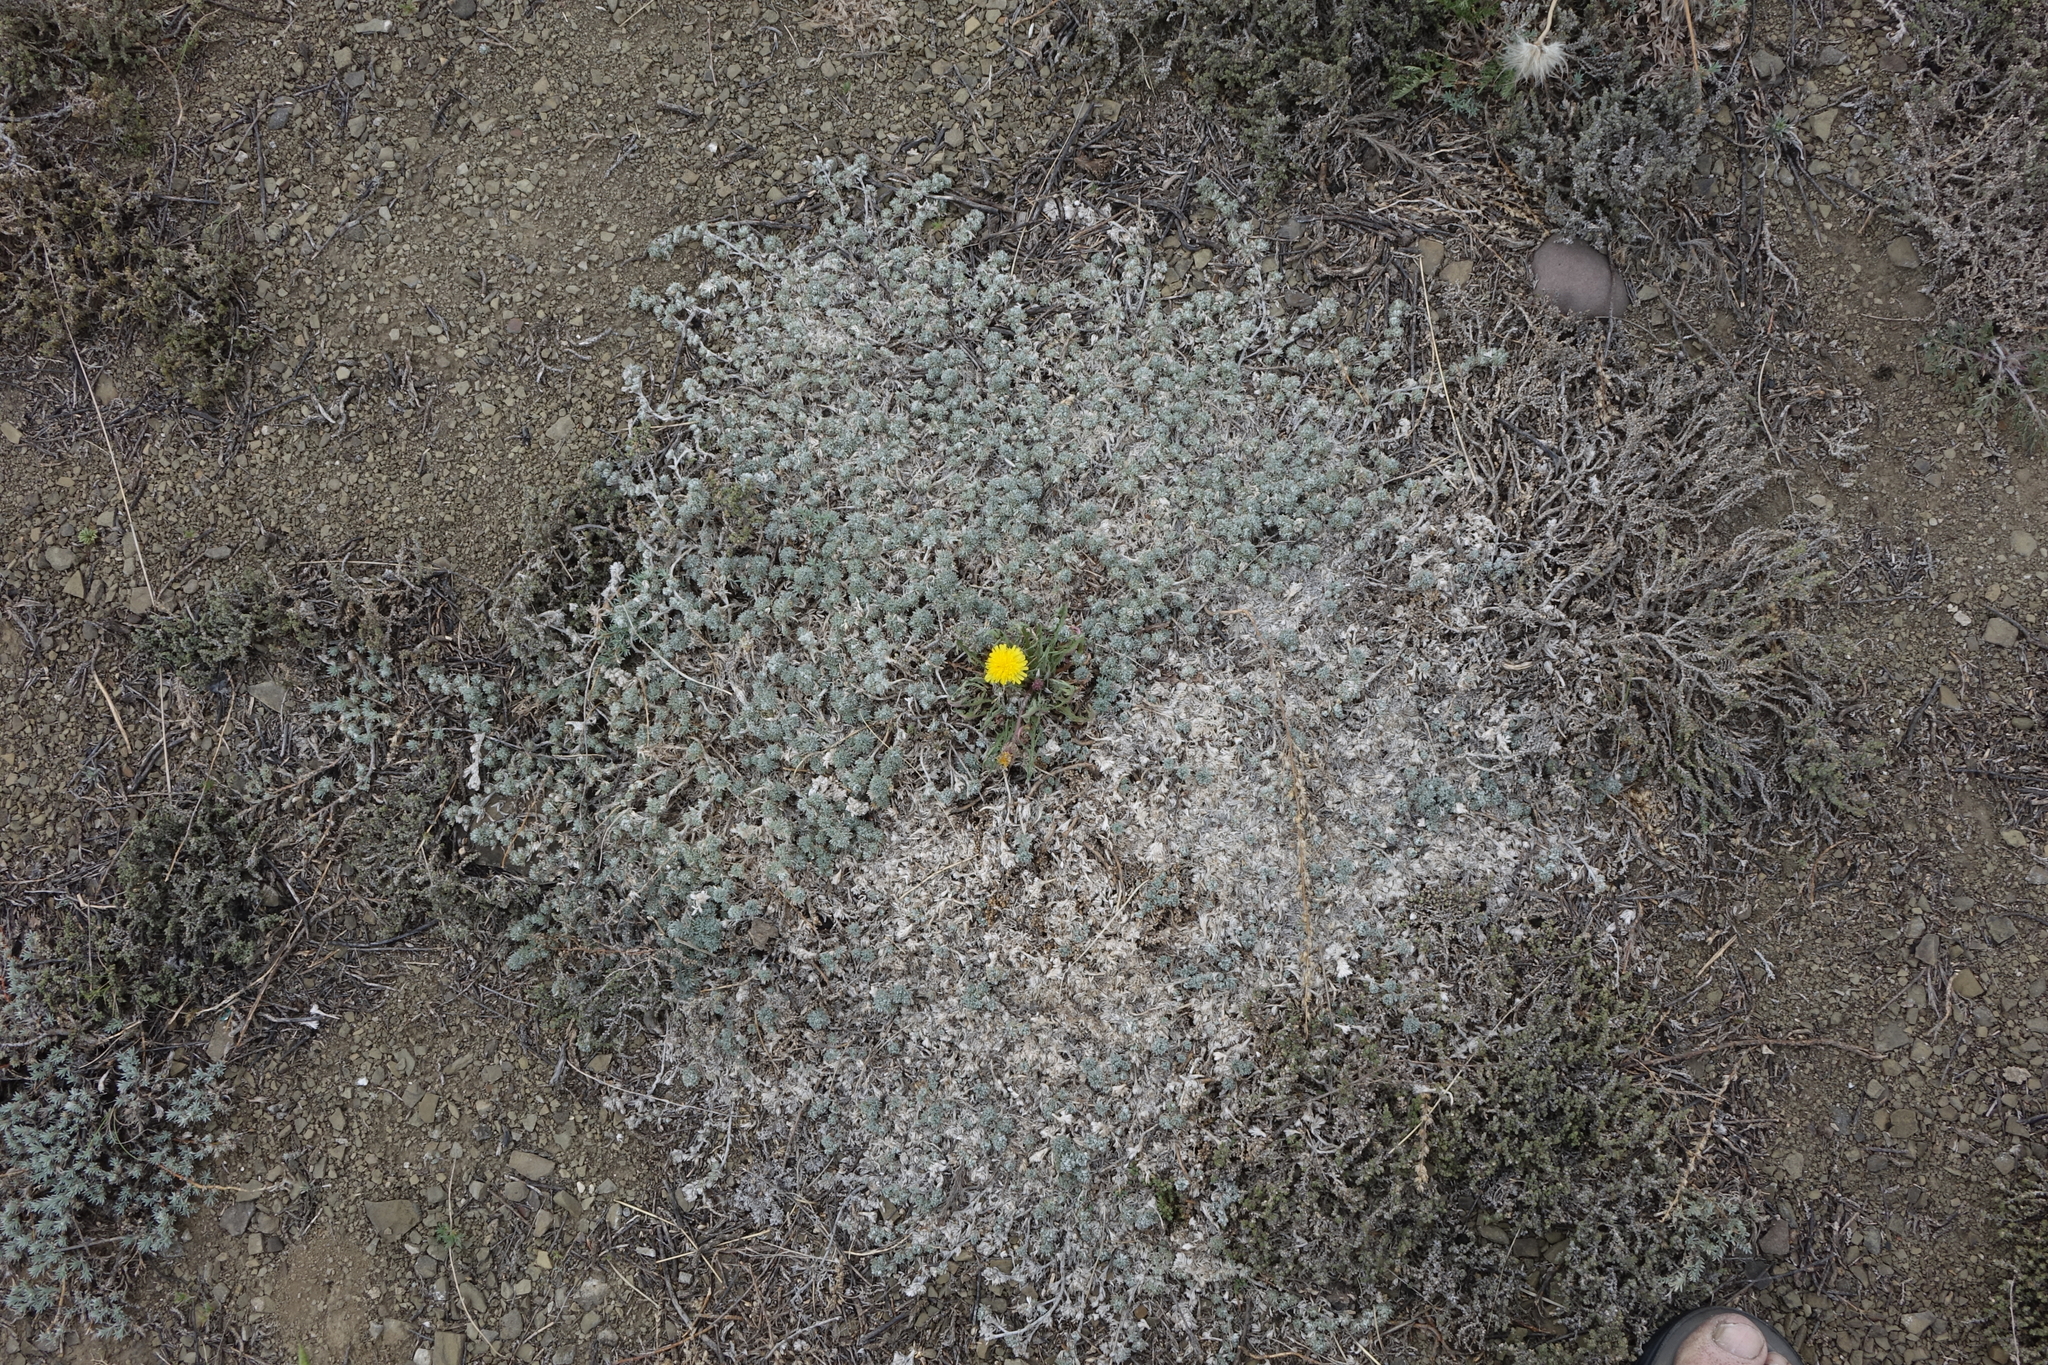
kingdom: Plantae
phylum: Tracheophyta
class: Magnoliopsida
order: Asterales
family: Asteraceae
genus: Artemisia
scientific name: Artemisia frigida
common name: Prairie sagewort
